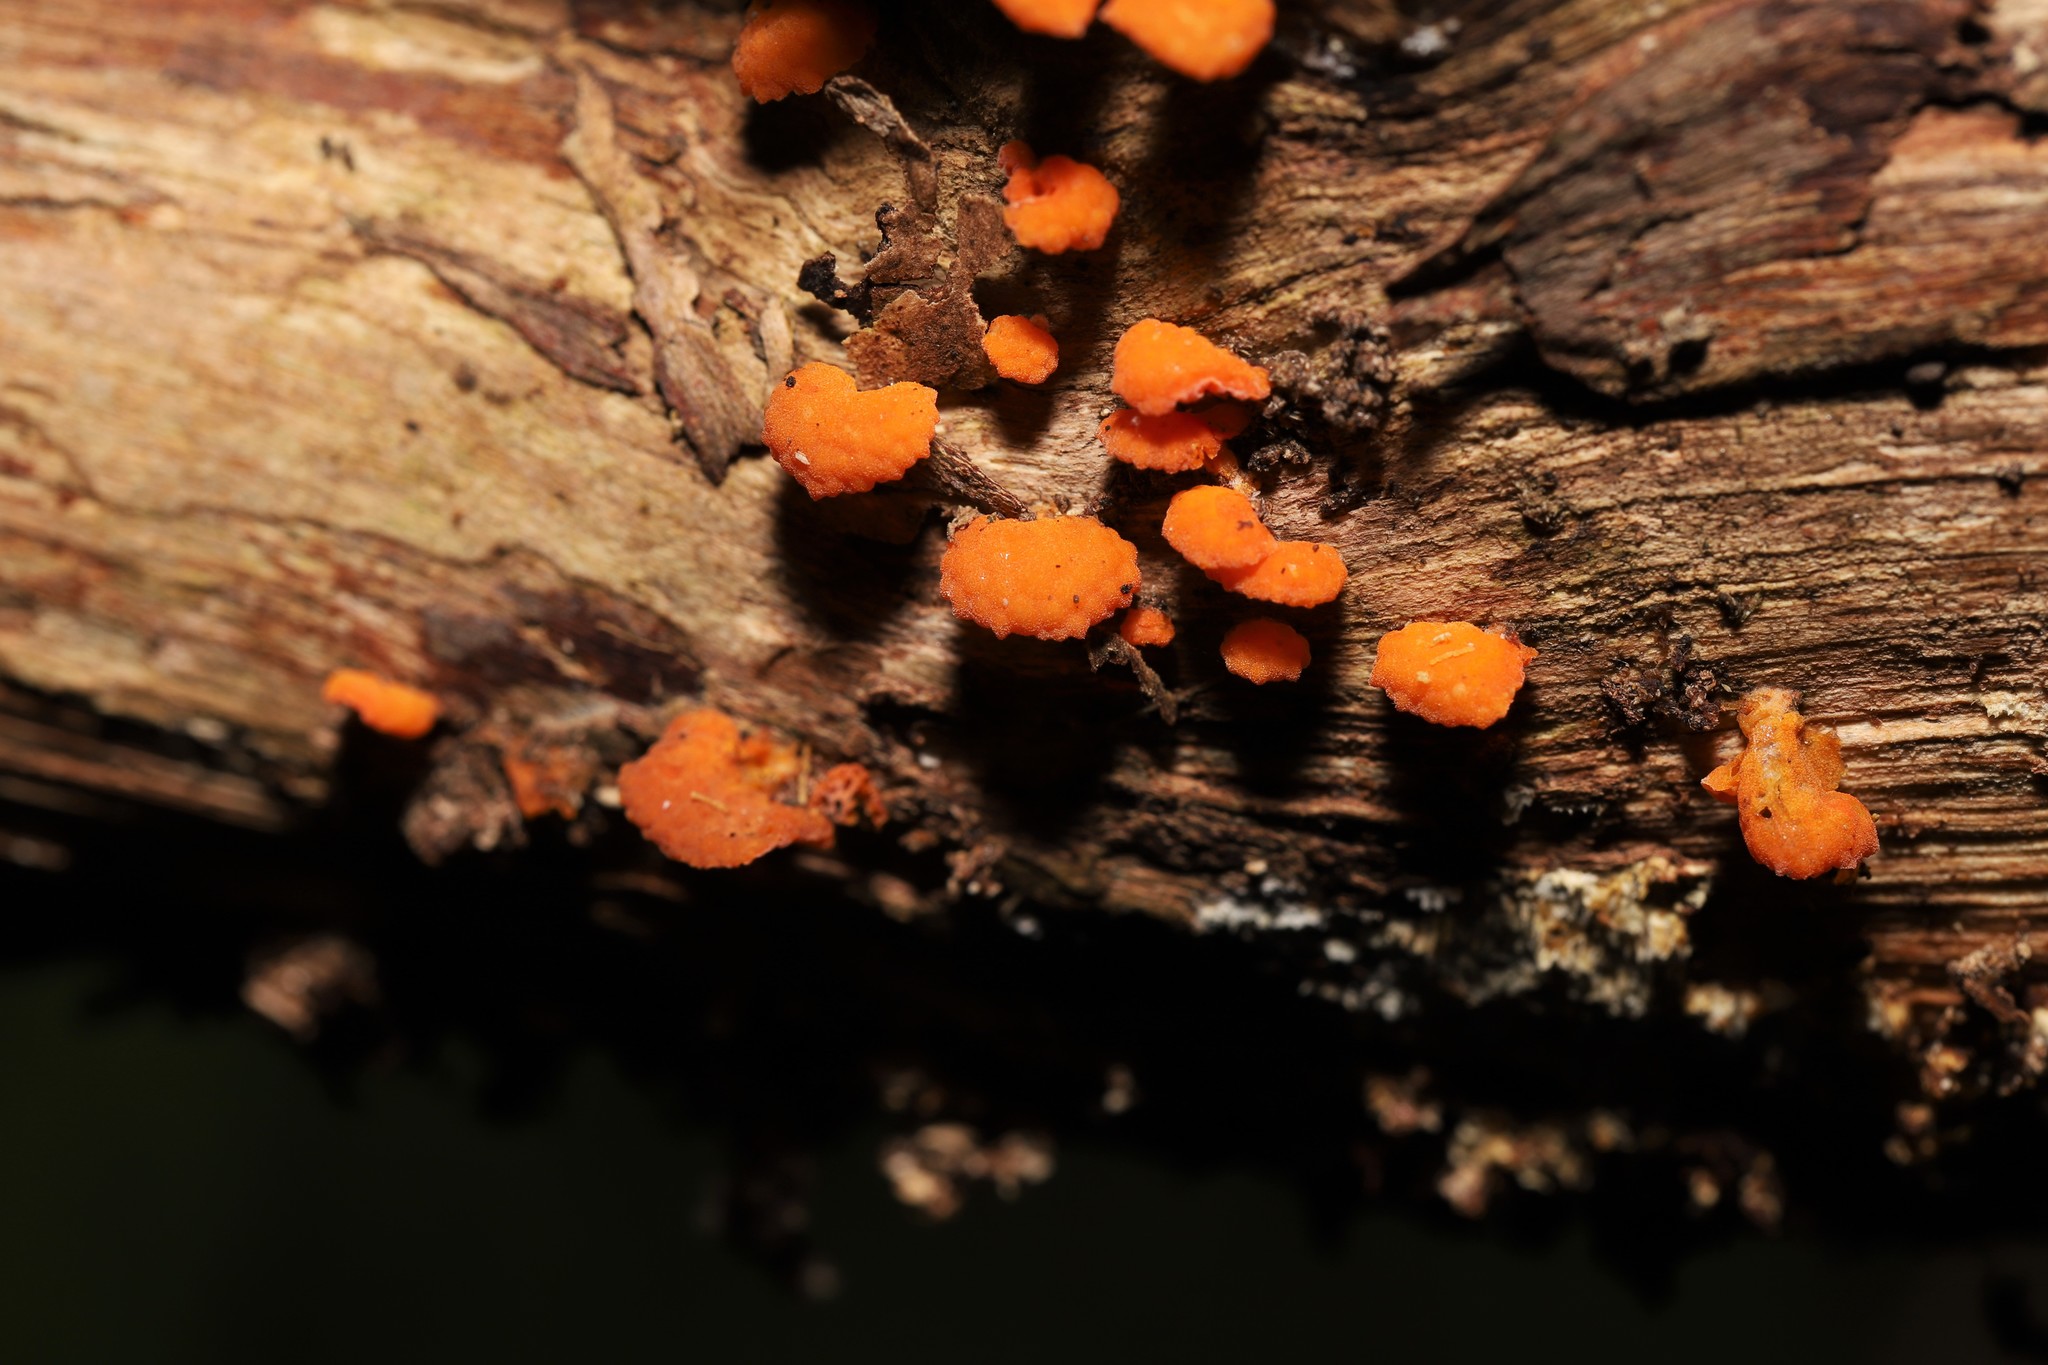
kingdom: Fungi
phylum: Basidiomycota
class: Agaricomycetes
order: Agaricales
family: Mycenaceae
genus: Favolaschia
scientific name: Favolaschia claudopus
